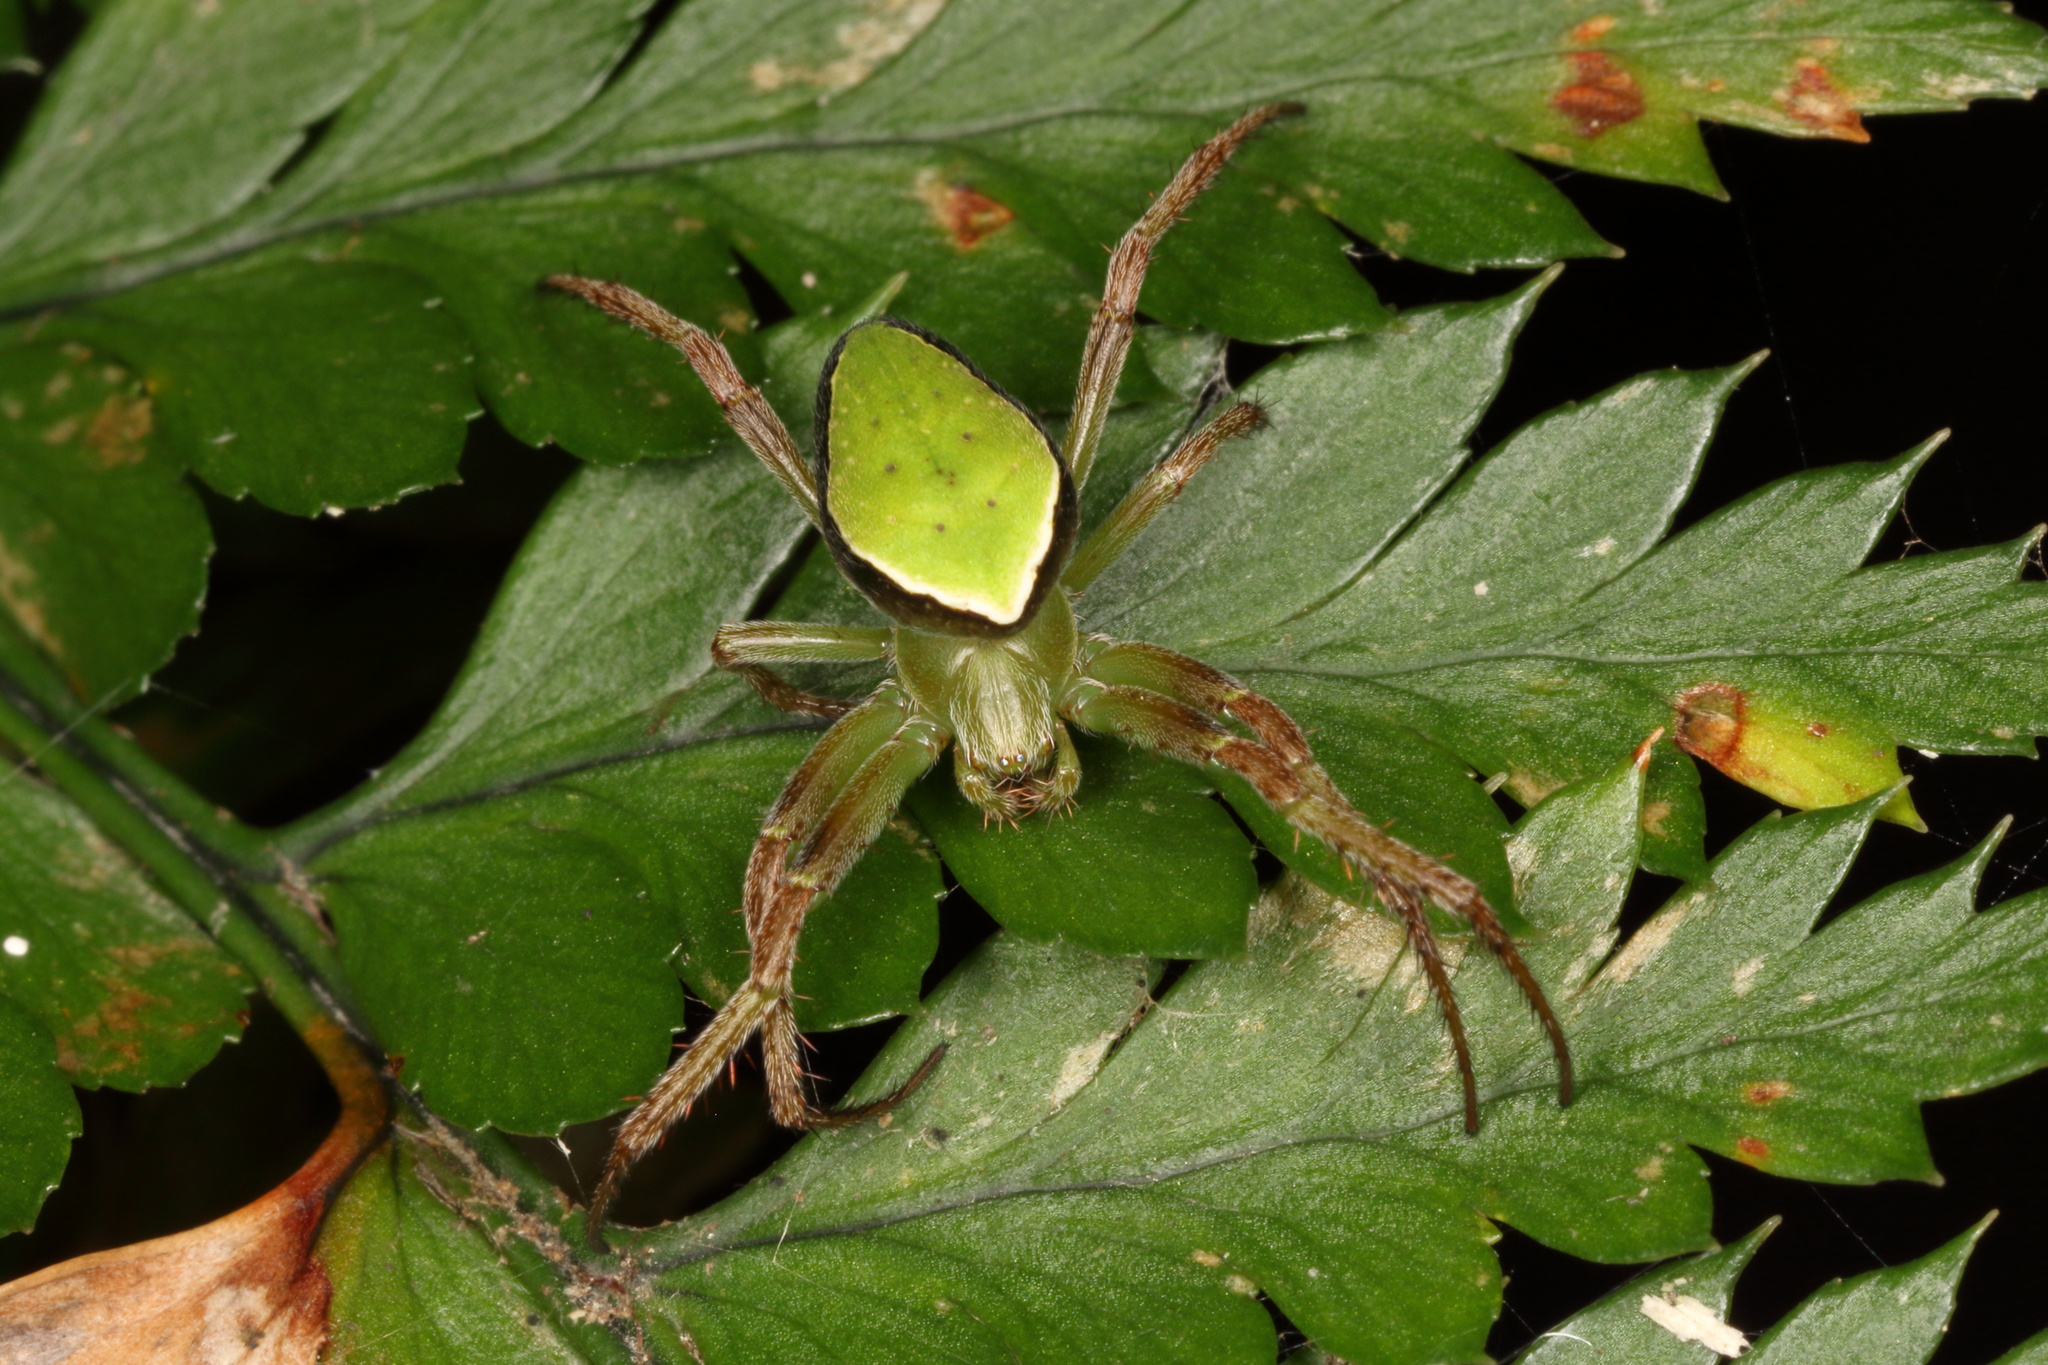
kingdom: Animalia
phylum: Arthropoda
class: Arachnida
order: Araneae
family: Araneidae
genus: Colaranea
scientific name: Colaranea viriditas
